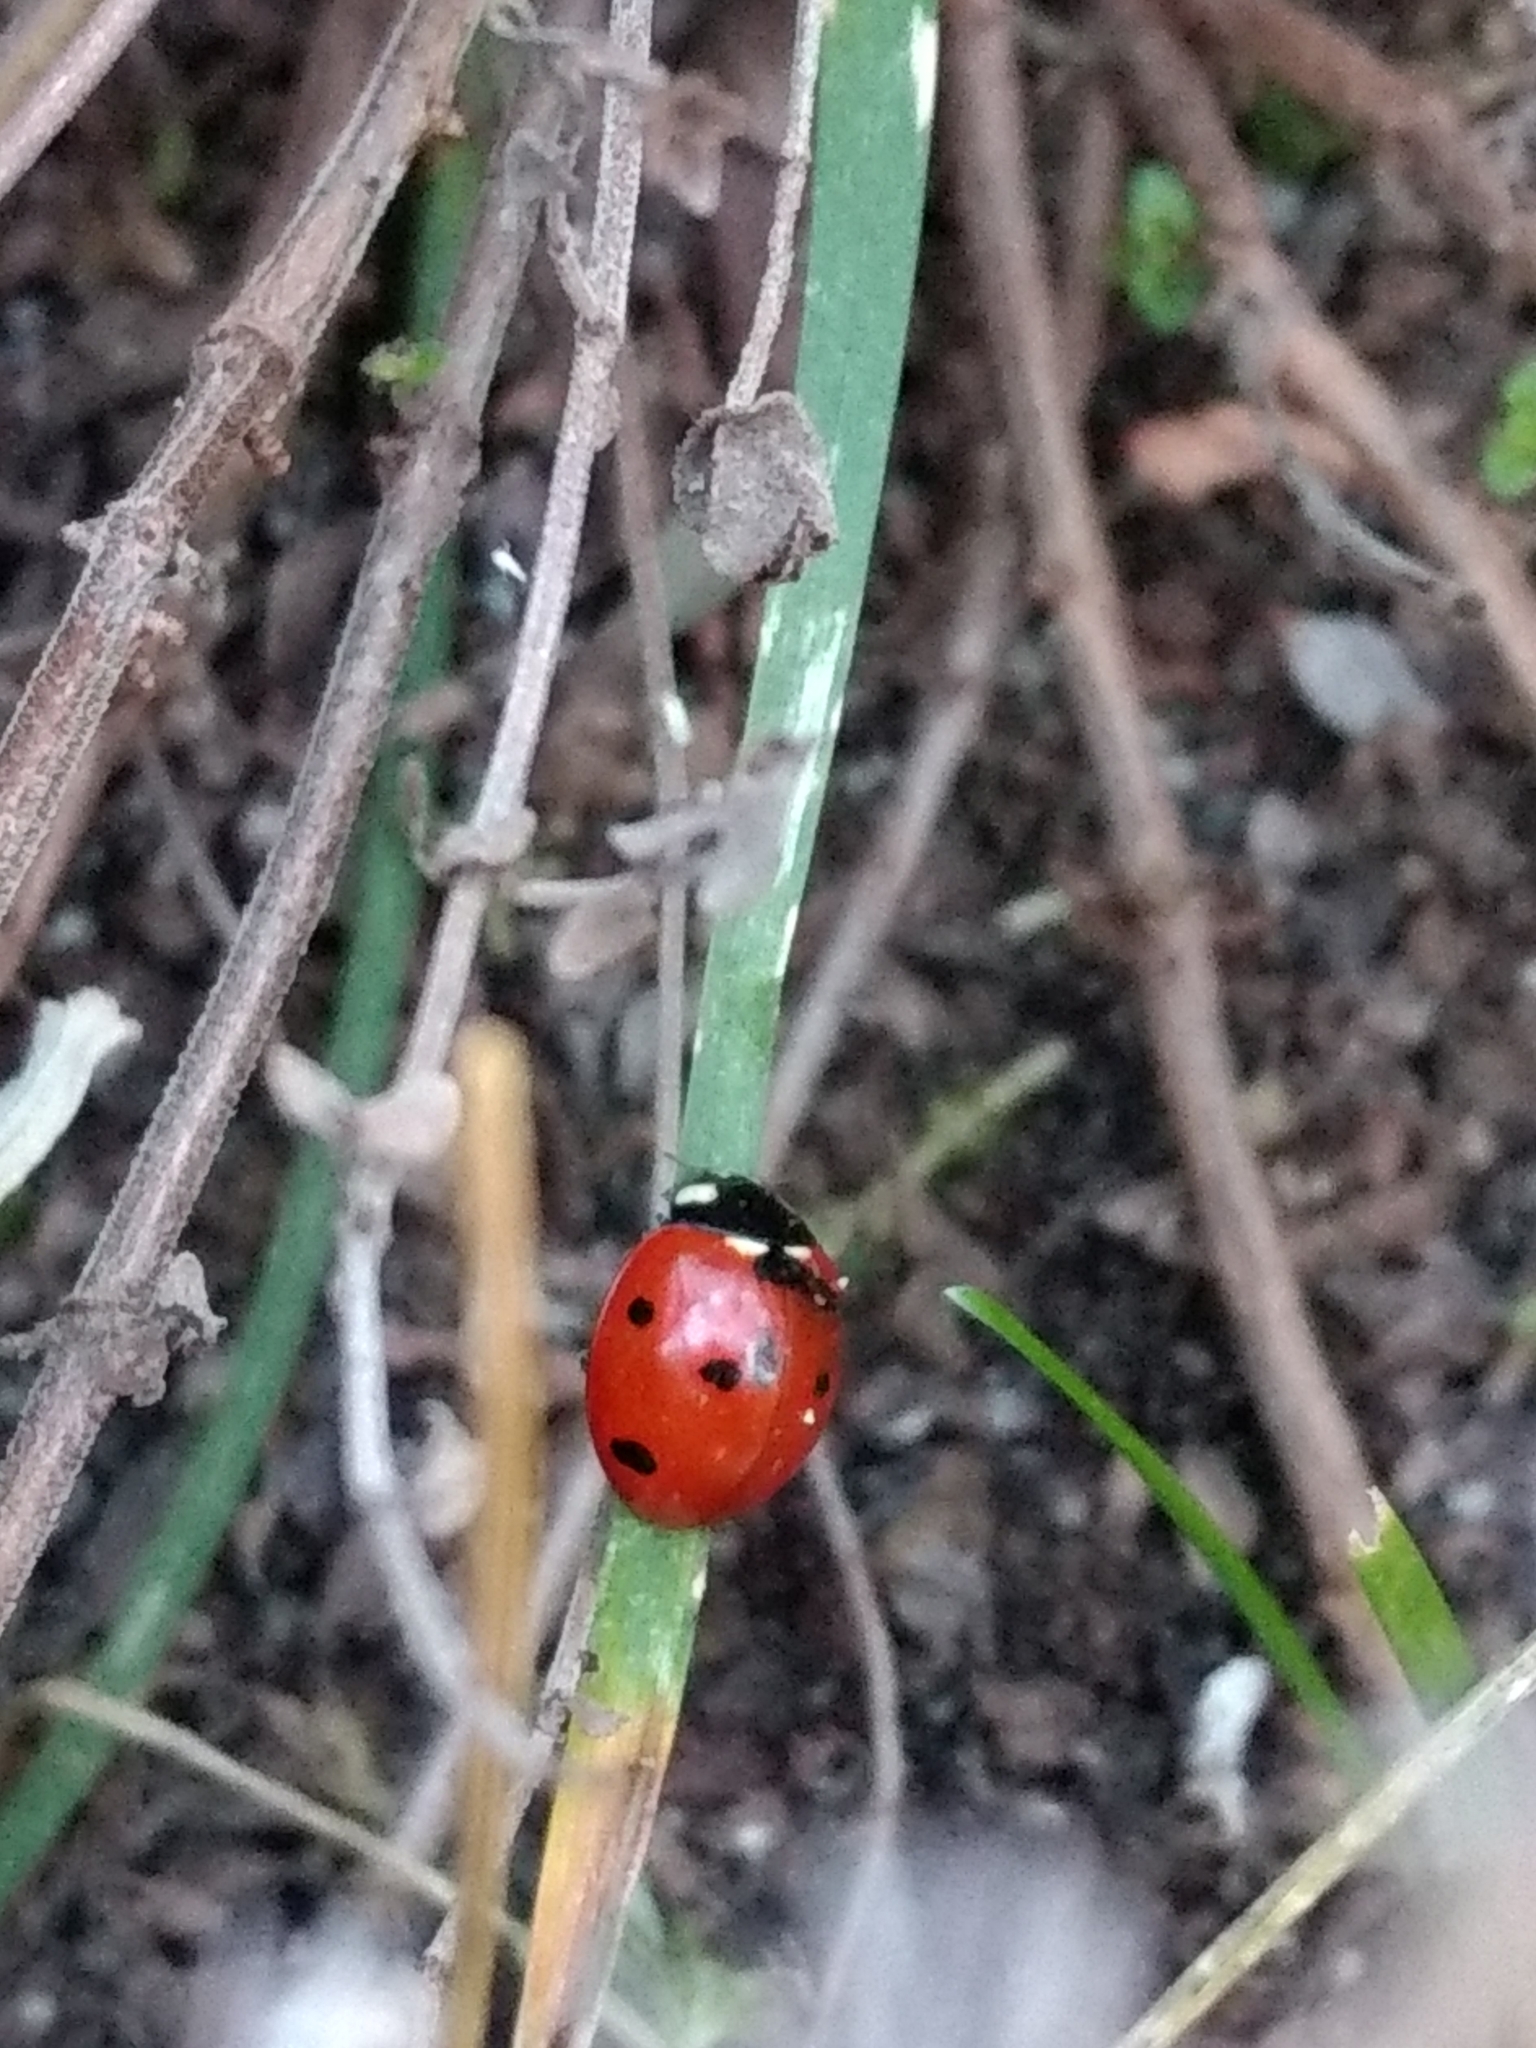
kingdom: Animalia
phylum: Arthropoda
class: Insecta
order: Coleoptera
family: Coccinellidae
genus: Coccinella
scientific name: Coccinella septempunctata
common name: Sevenspotted lady beetle
